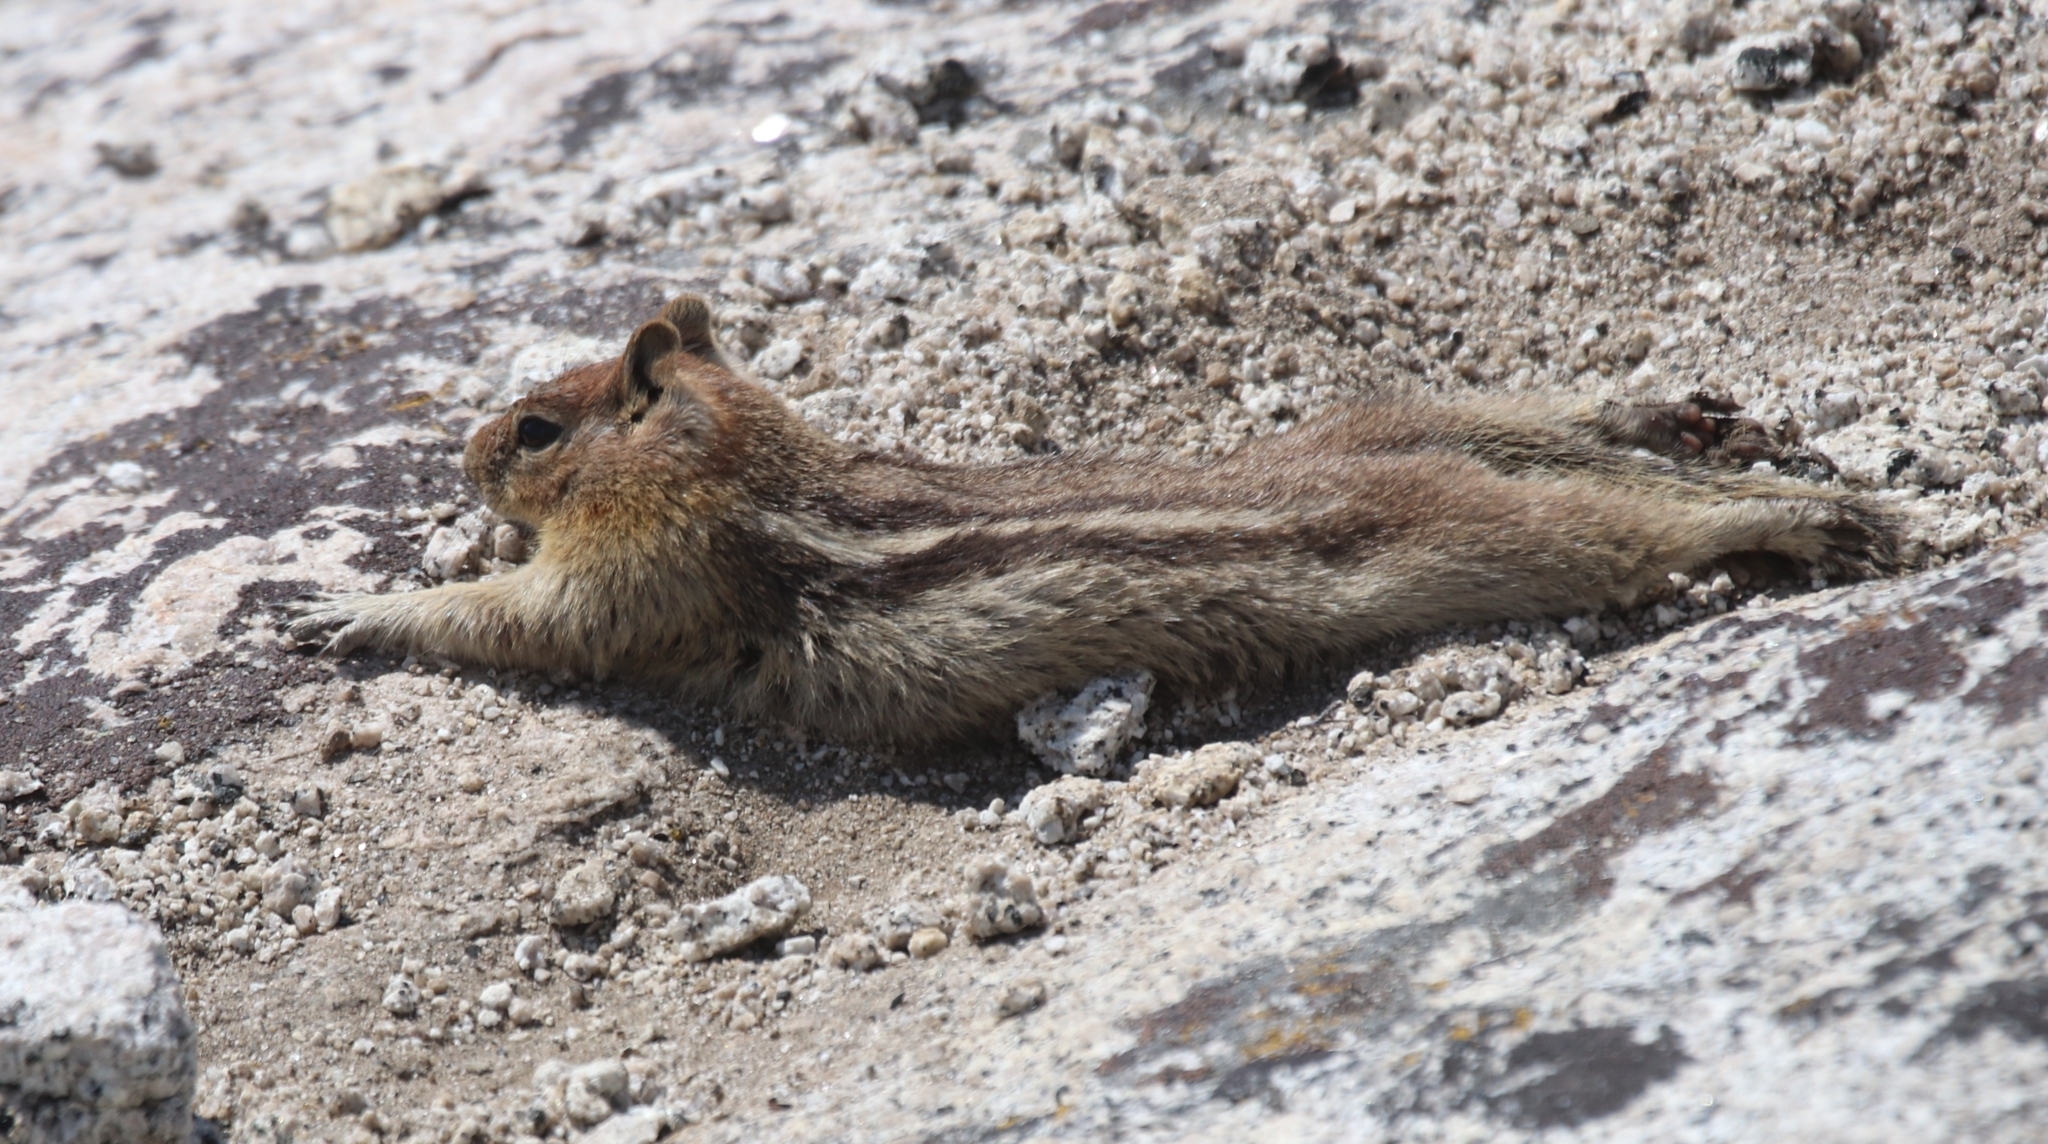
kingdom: Animalia
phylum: Chordata
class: Mammalia
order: Rodentia
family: Sciuridae
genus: Callospermophilus
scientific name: Callospermophilus lateralis
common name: Golden-mantled ground squirrel
